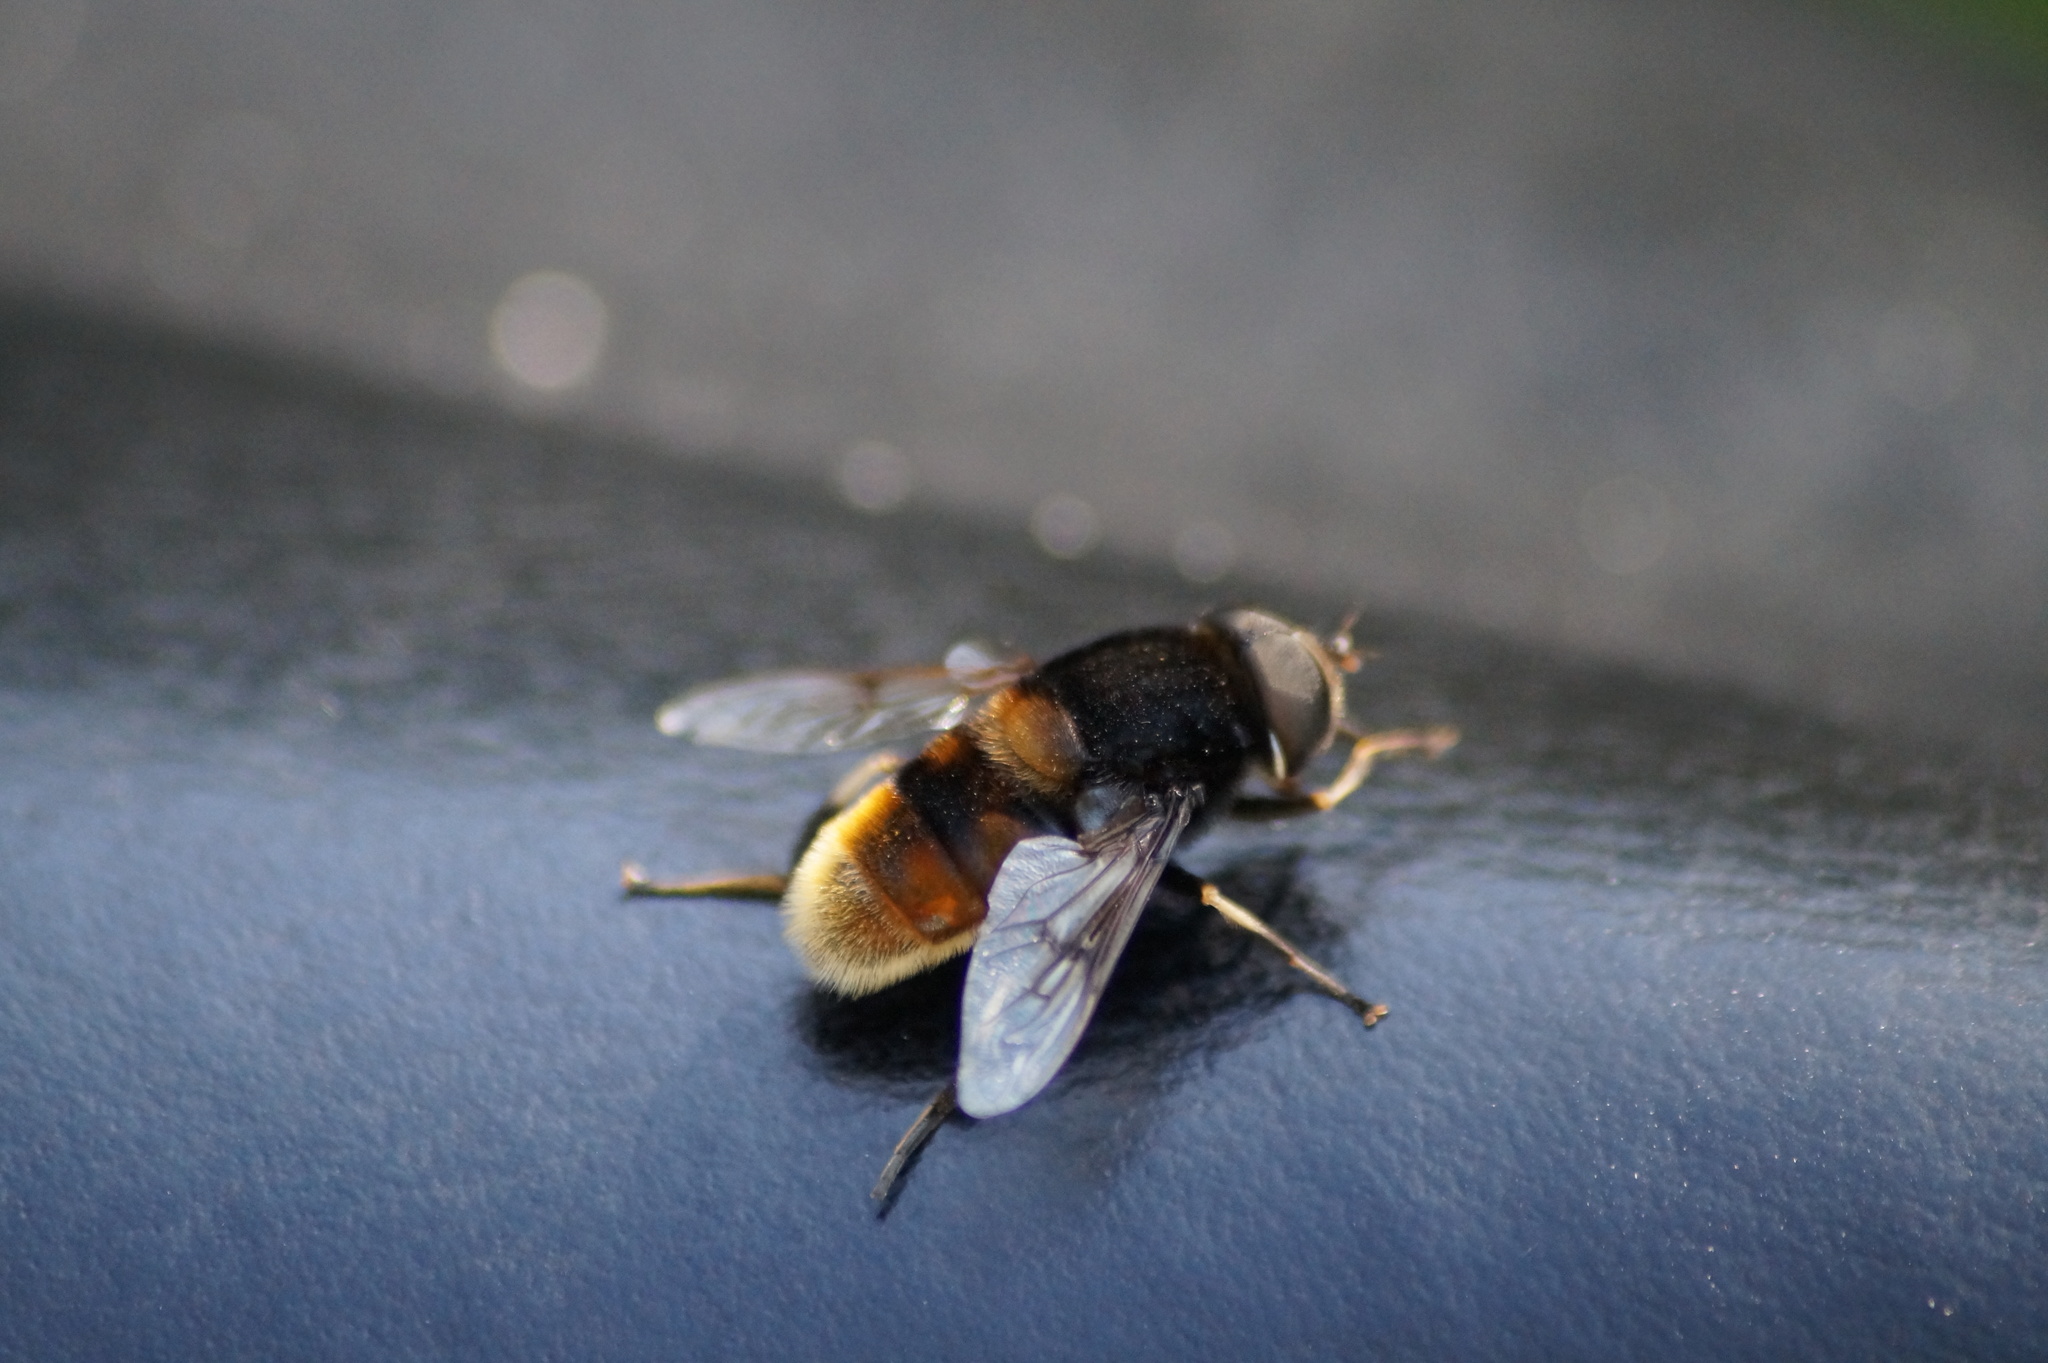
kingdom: Animalia
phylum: Arthropoda
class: Insecta
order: Diptera
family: Syrphidae
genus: Eristalis
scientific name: Eristalis intricaria
